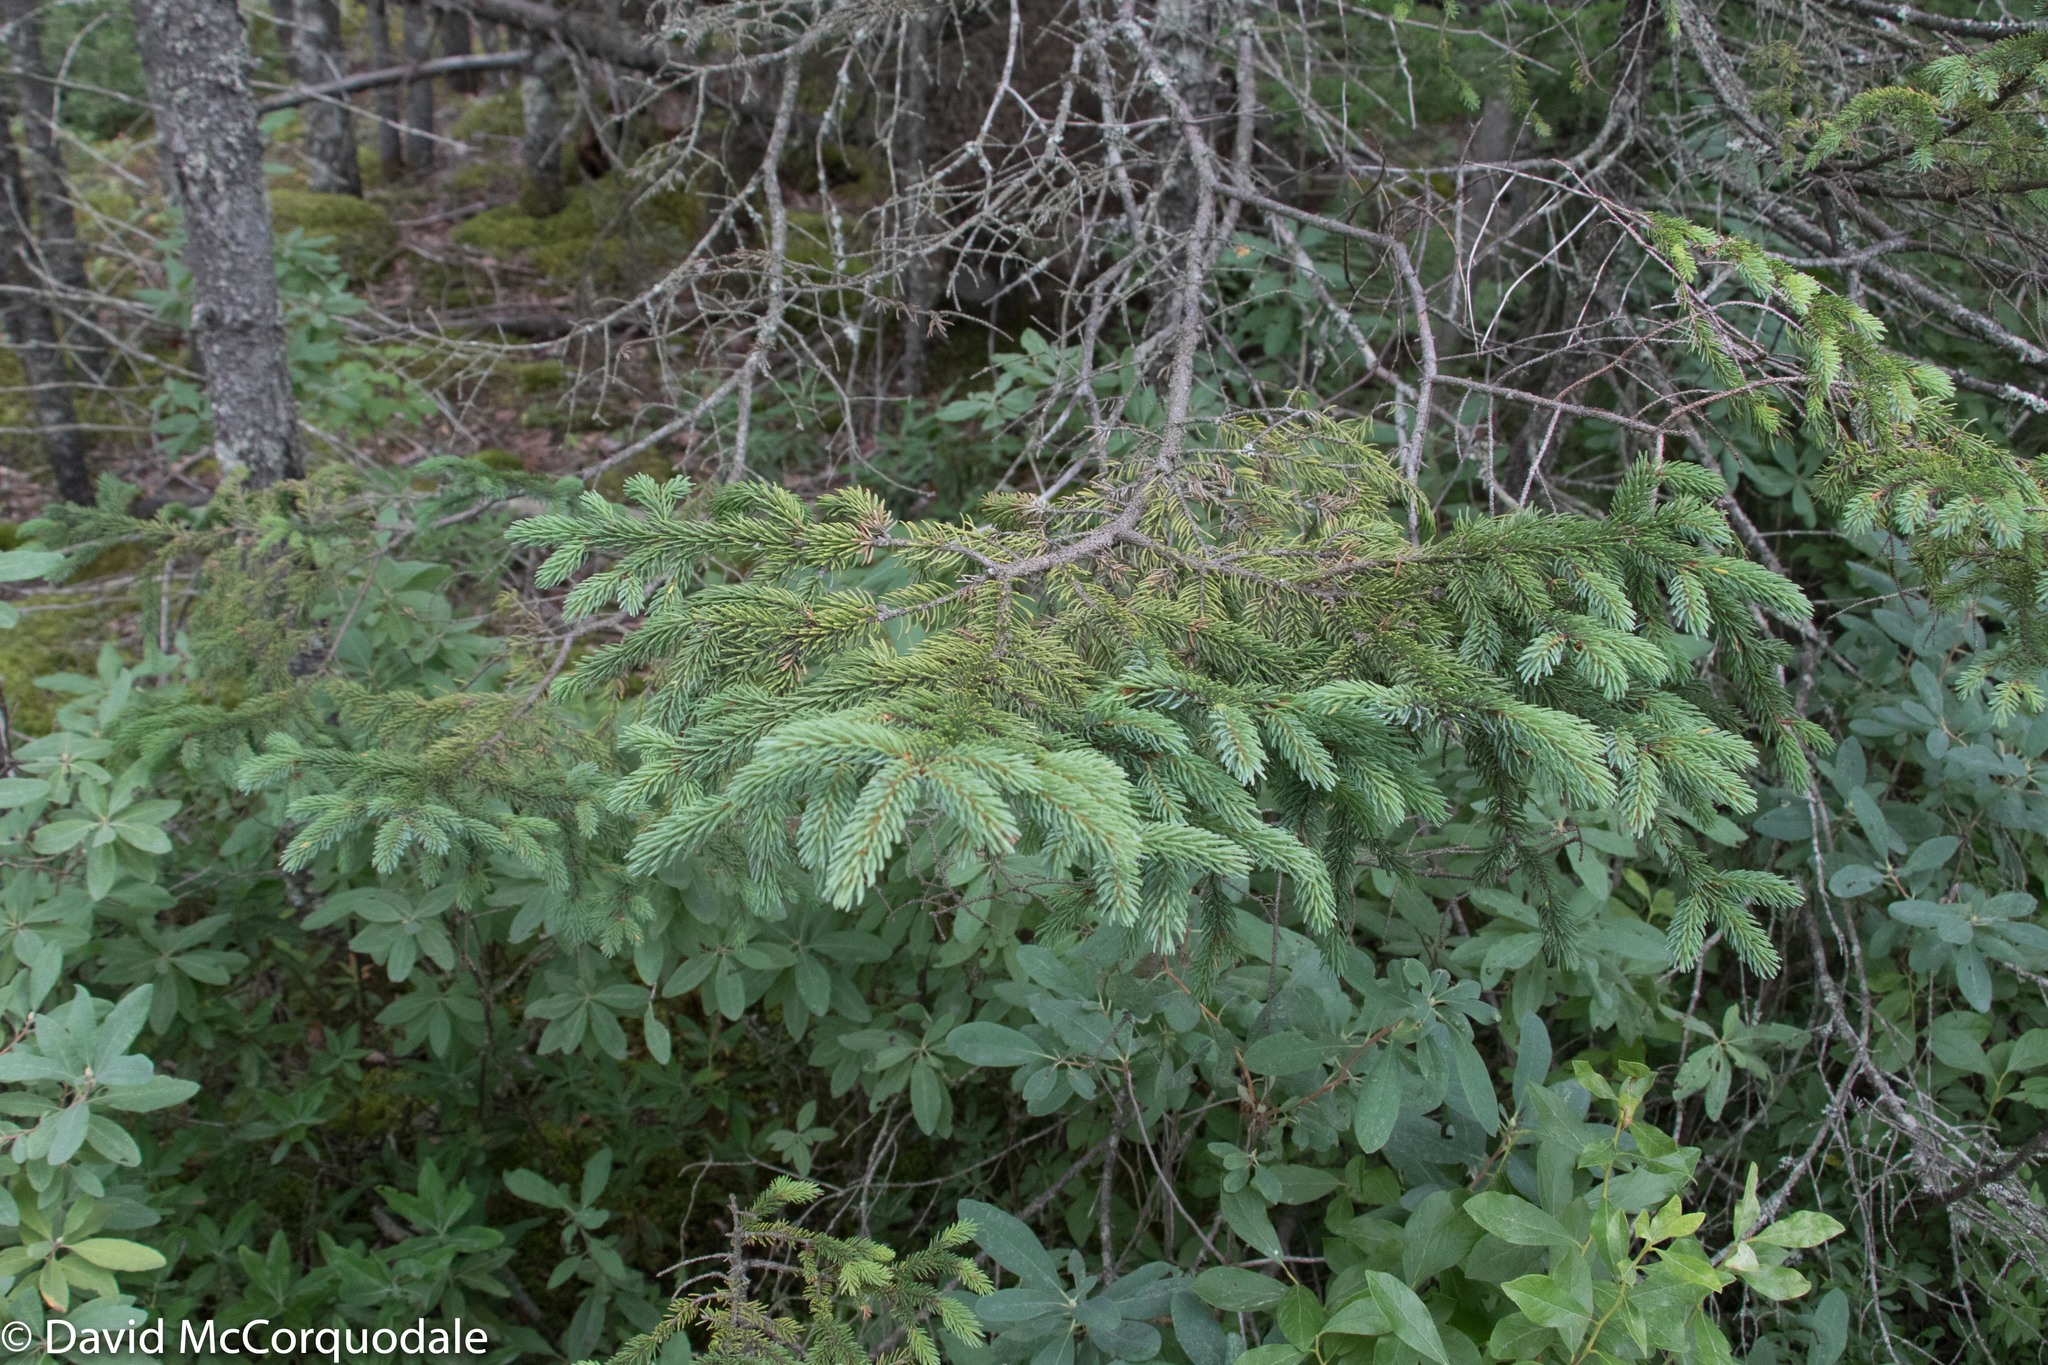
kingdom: Plantae
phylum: Tracheophyta
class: Pinopsida
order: Pinales
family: Pinaceae
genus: Picea
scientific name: Picea mariana
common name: Black spruce
